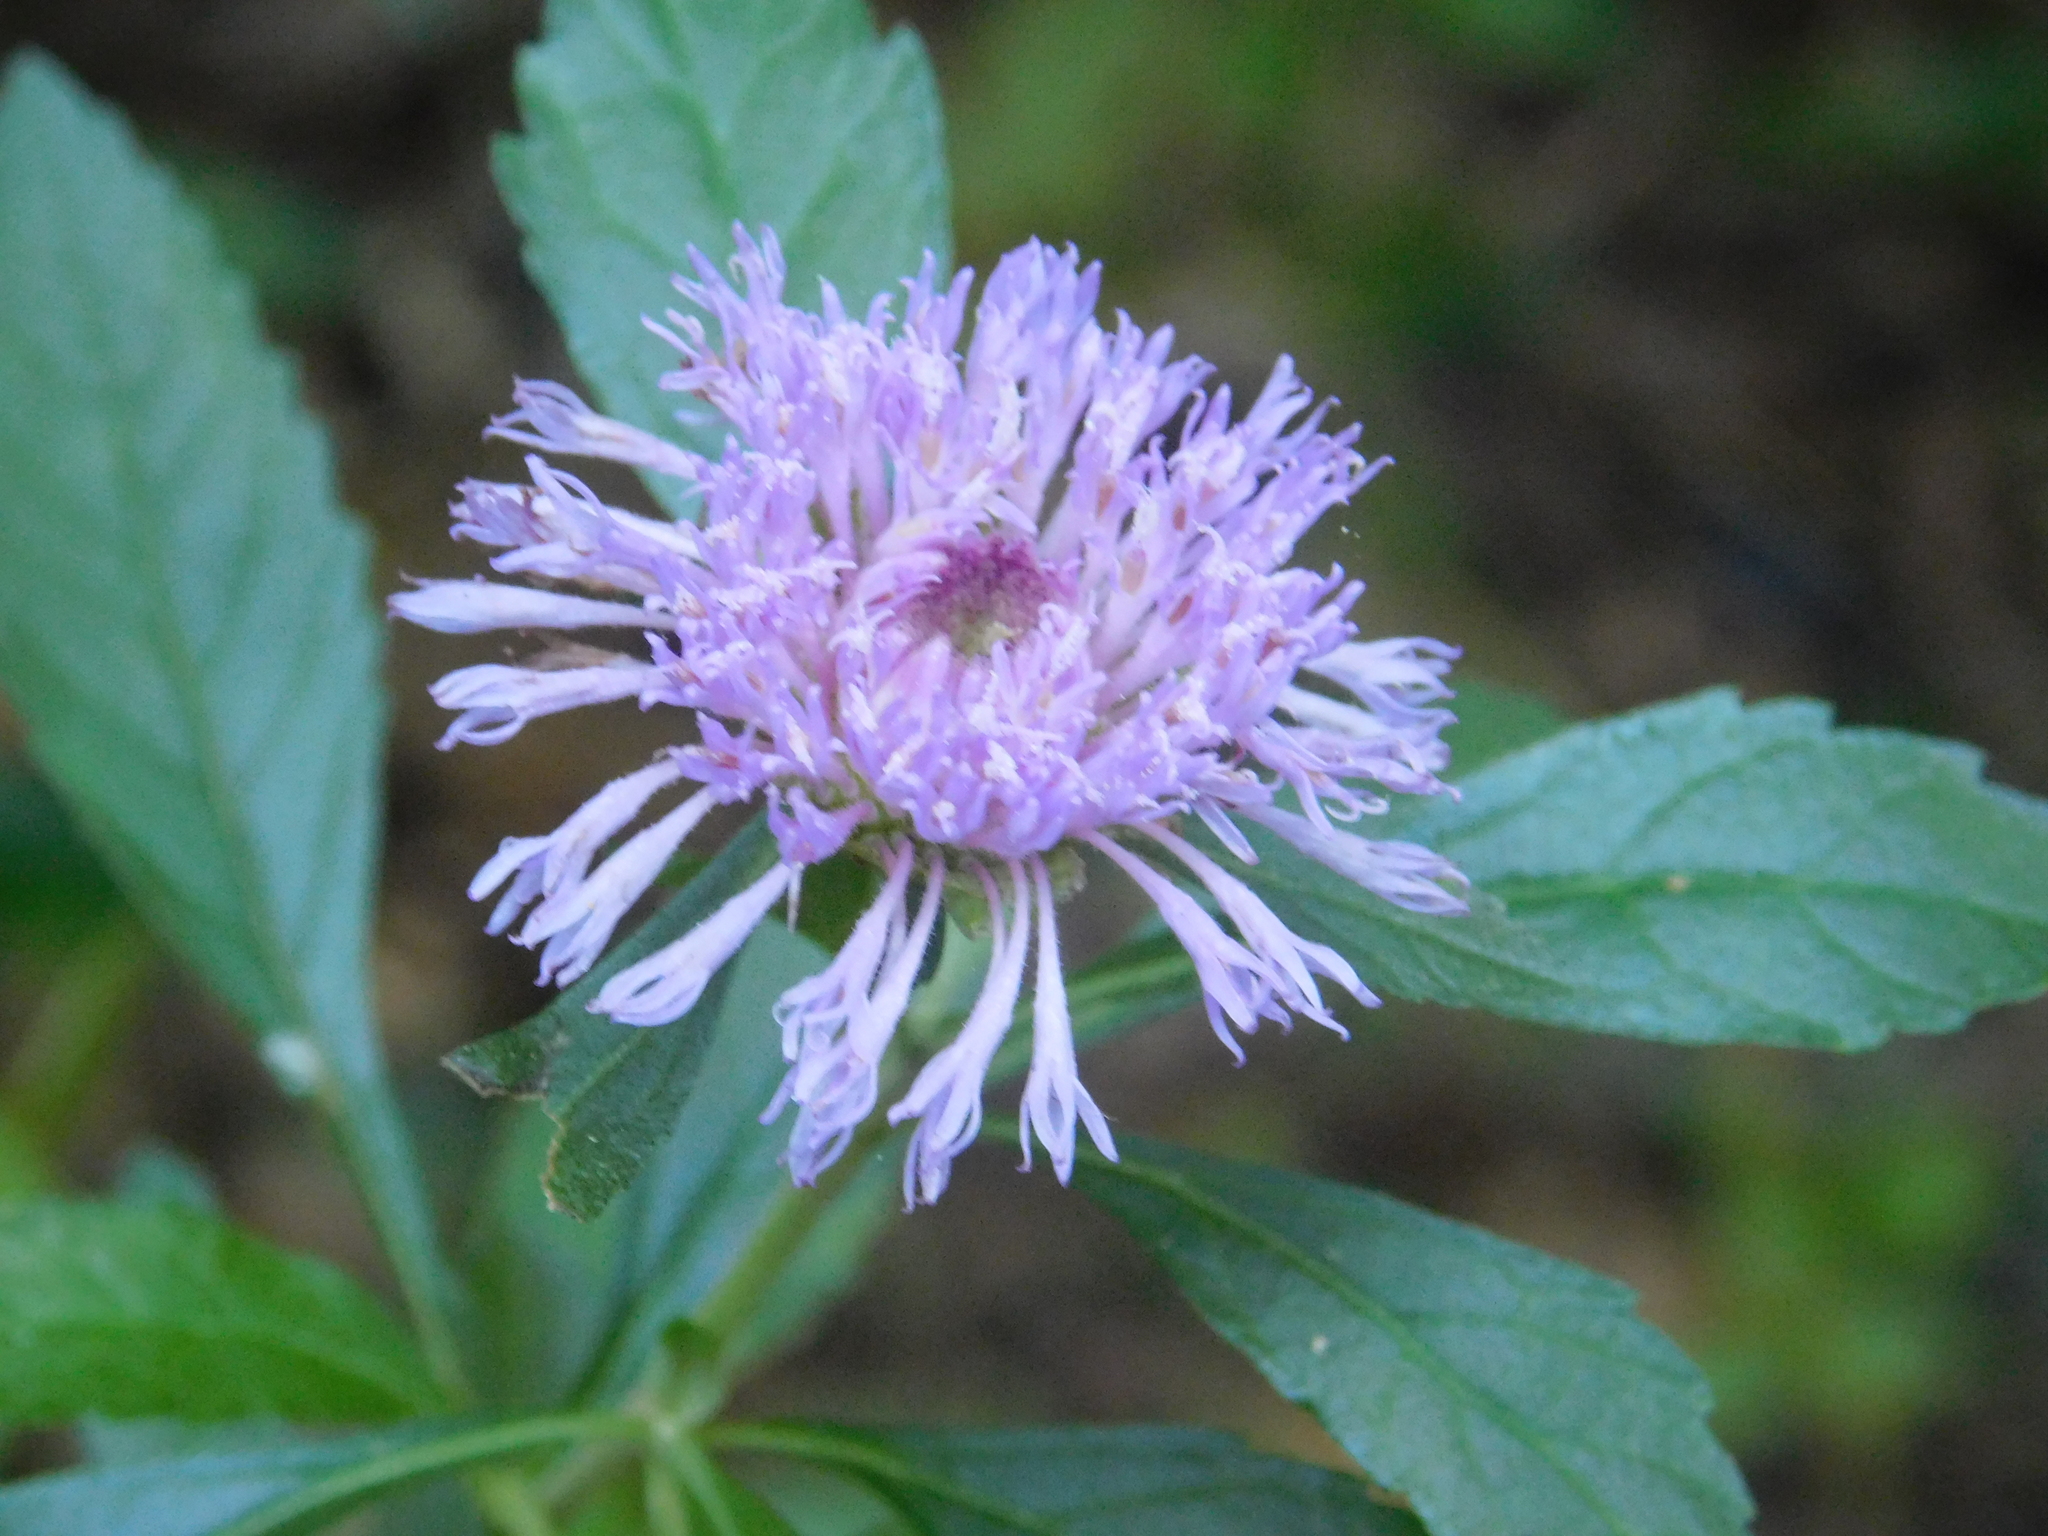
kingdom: Plantae
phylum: Tracheophyta
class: Magnoliopsida
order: Asterales
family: Asteraceae
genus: Centratherum
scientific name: Centratherum punctatum
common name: Larkdaisy
